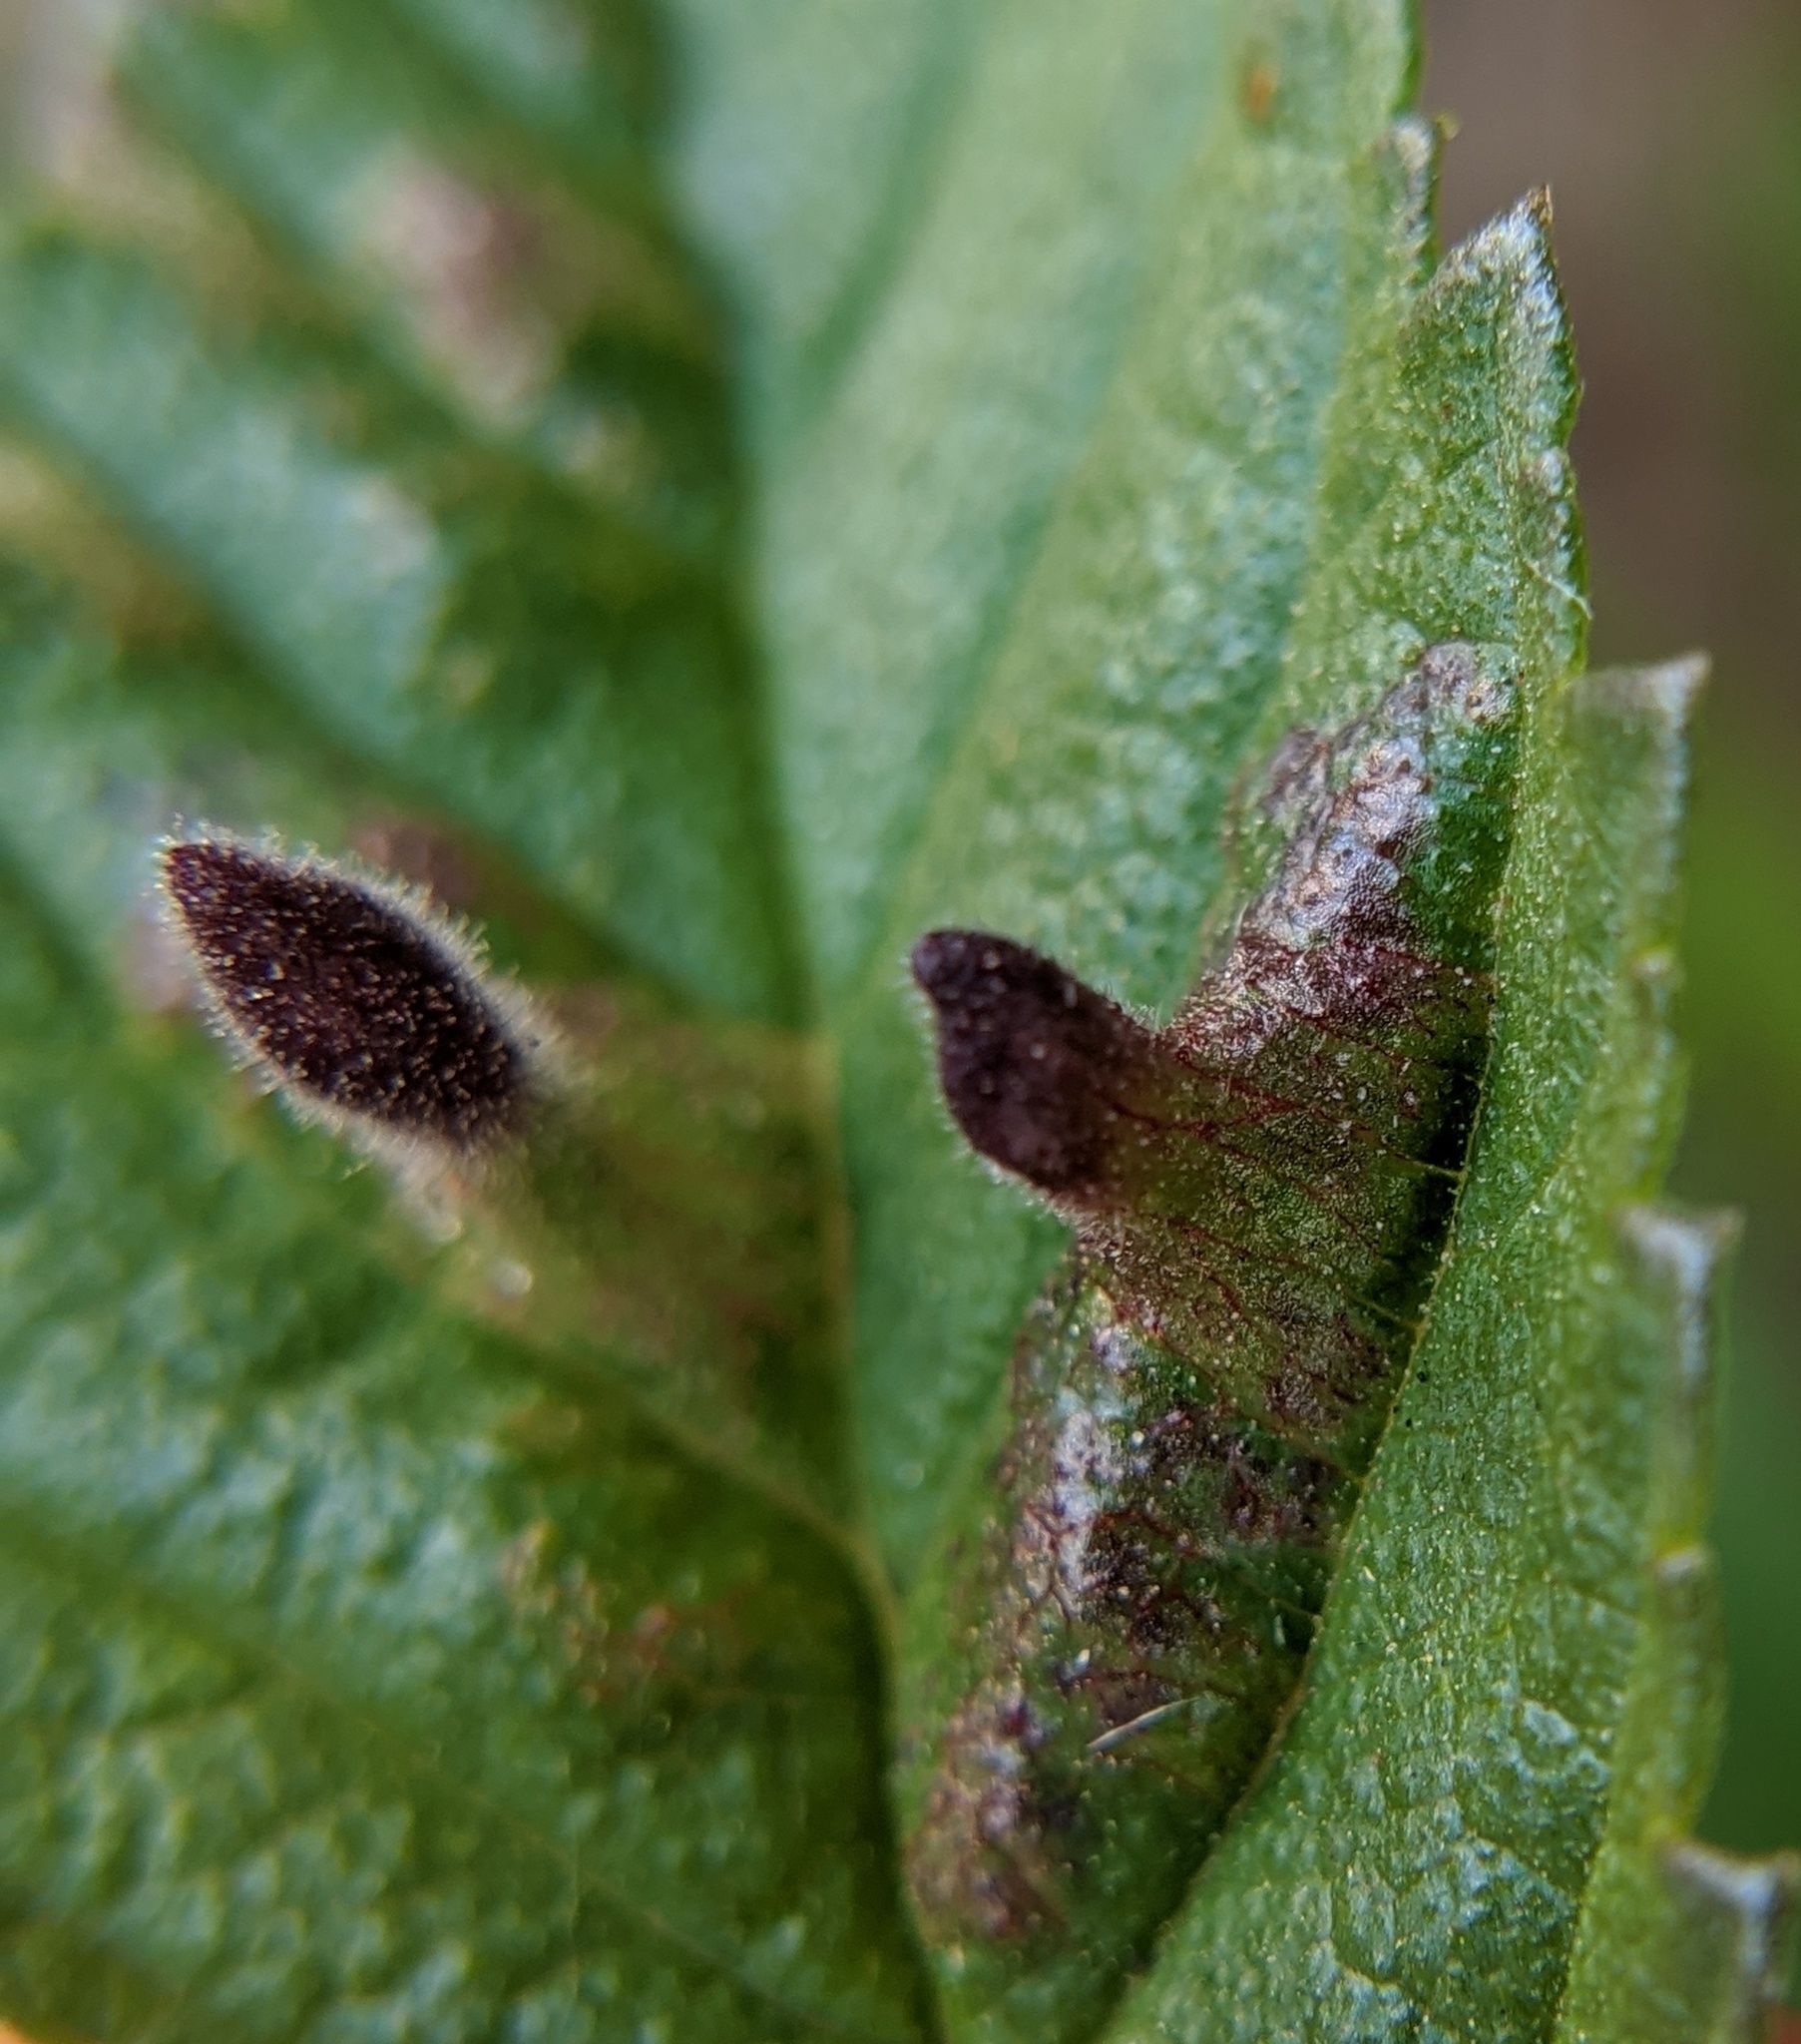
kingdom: Animalia
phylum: Arthropoda
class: Insecta
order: Hemiptera
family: Aphididae
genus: Tetraneura
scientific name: Tetraneura nigriabdominalis
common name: Aphid
